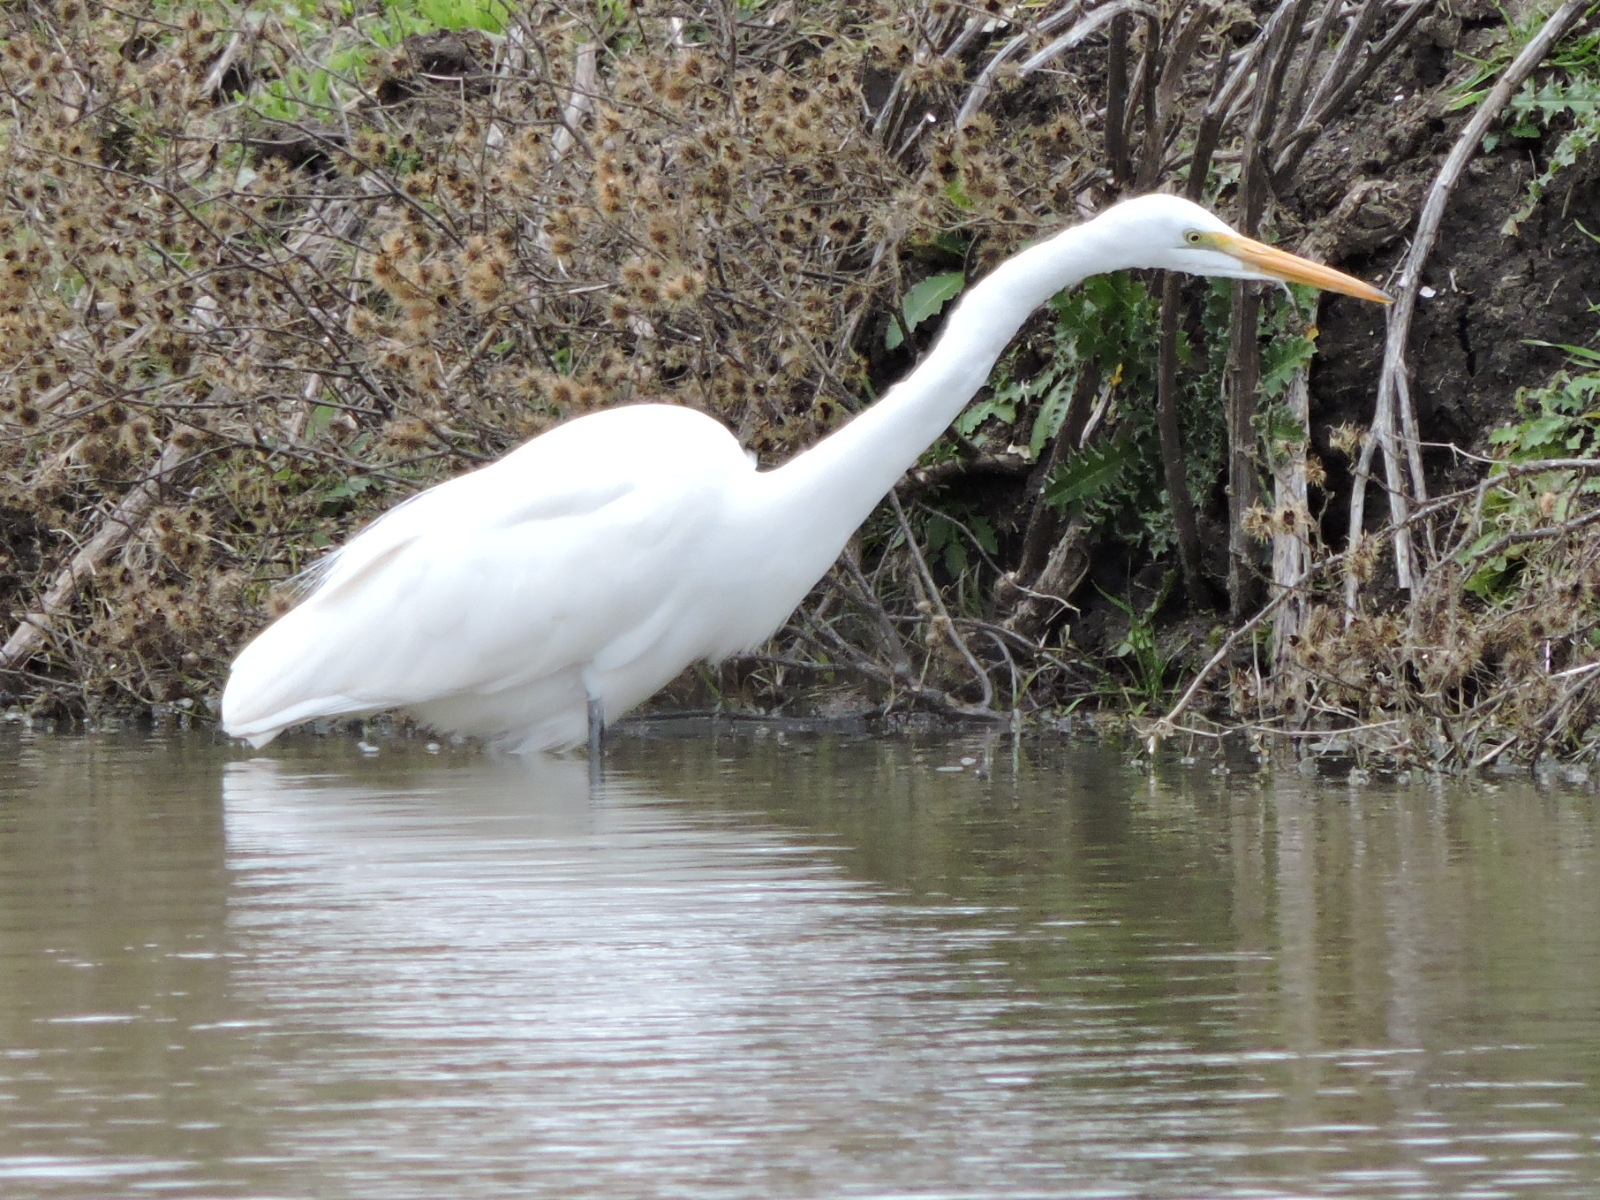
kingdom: Animalia
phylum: Chordata
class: Aves
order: Pelecaniformes
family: Ardeidae
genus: Ardea
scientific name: Ardea alba
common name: Great egret
